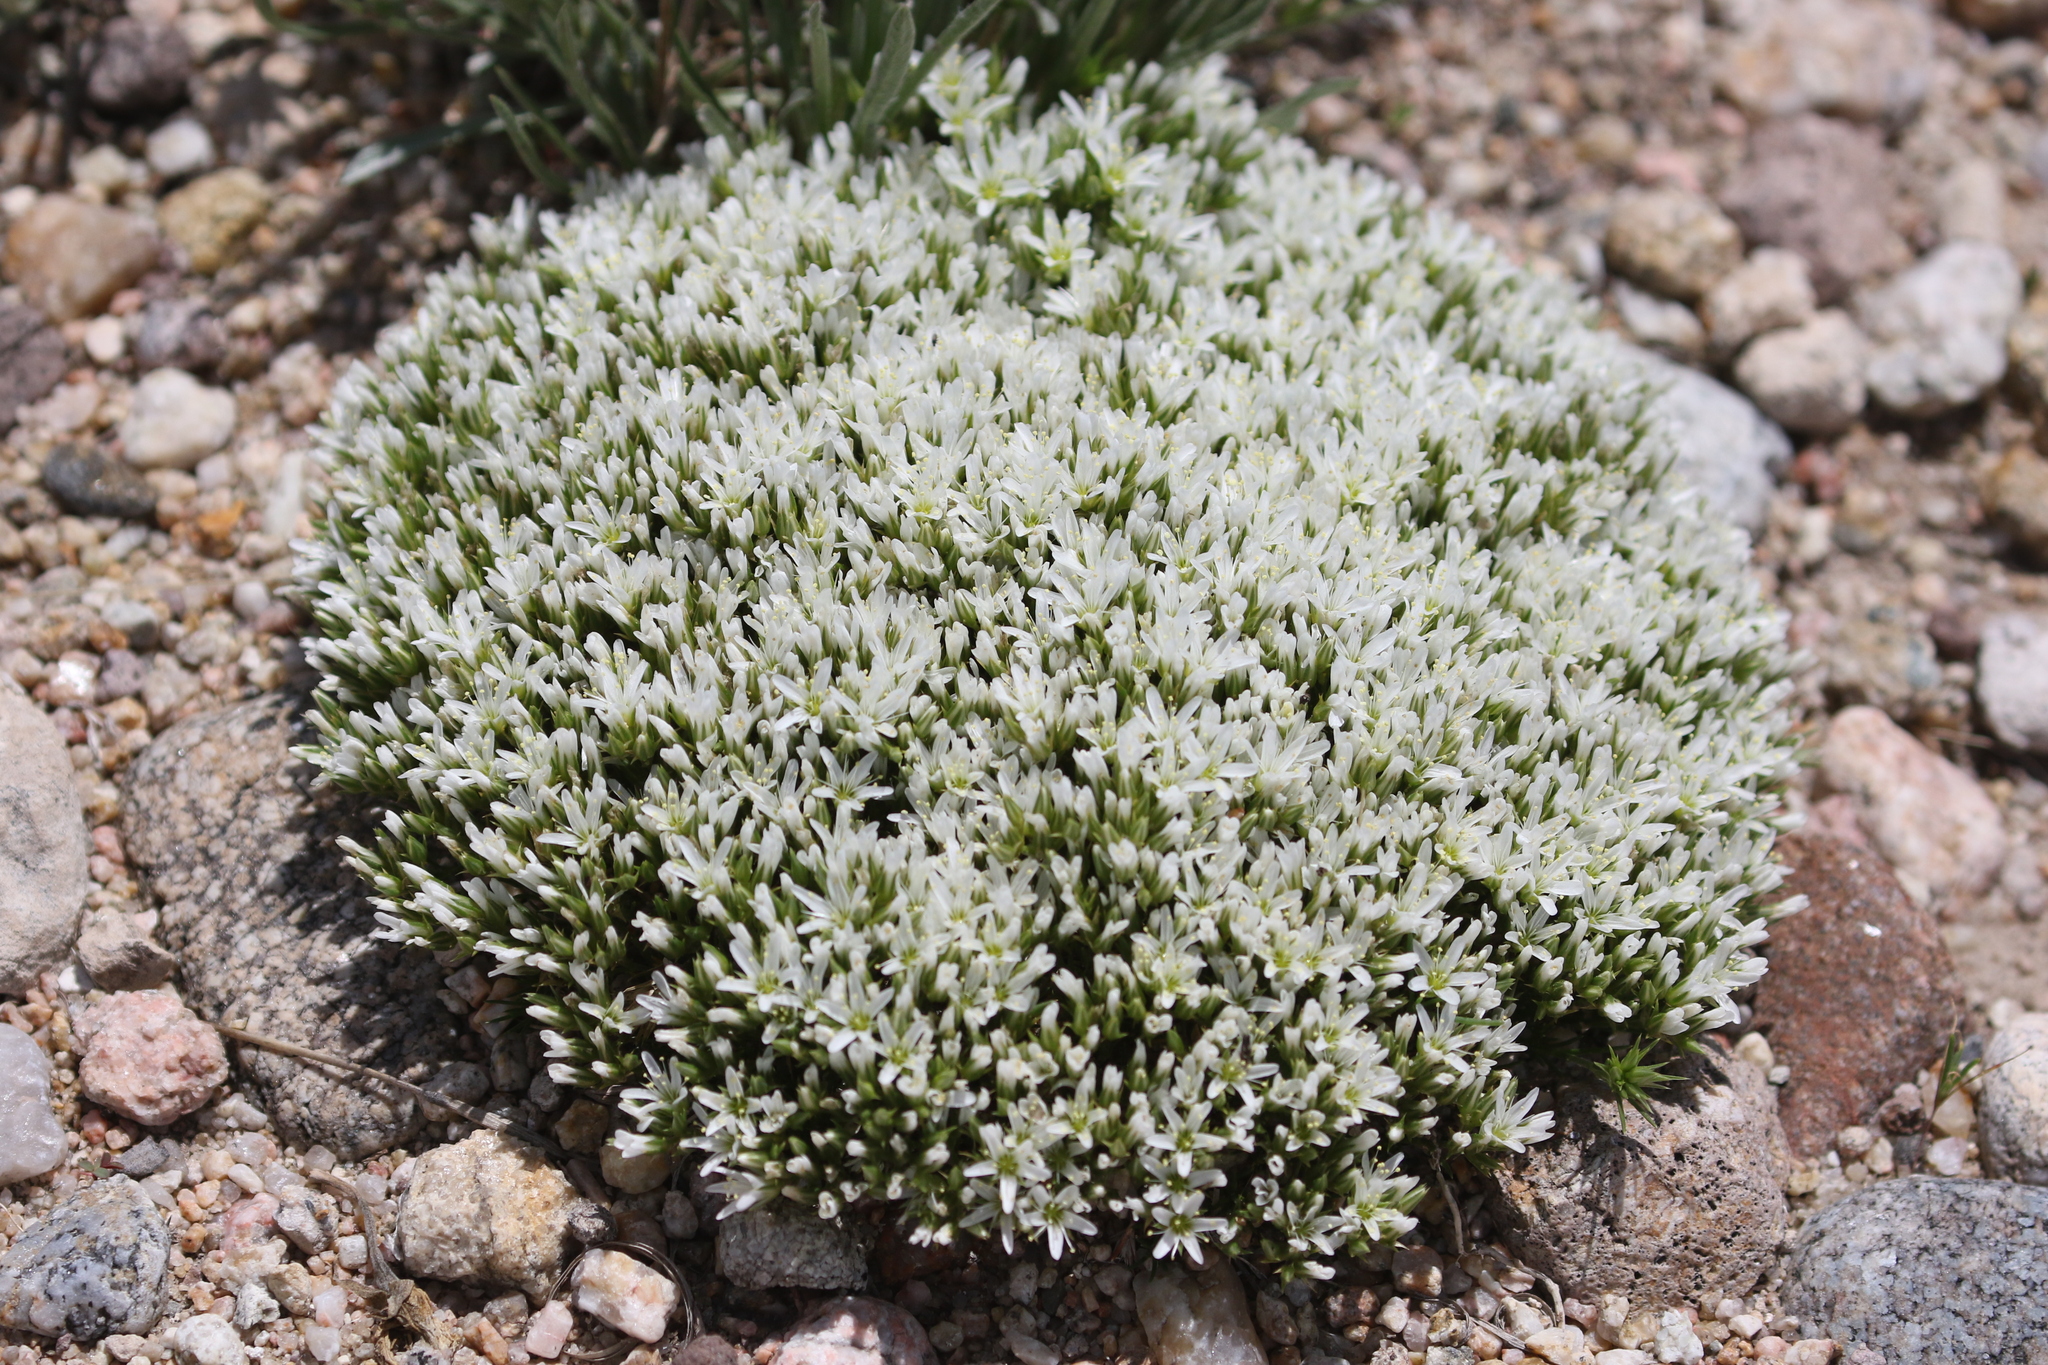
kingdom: Plantae
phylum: Tracheophyta
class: Magnoliopsida
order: Caryophyllales
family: Caryophyllaceae
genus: Eremogone
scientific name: Eremogone hookeri
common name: Hooker's sandwort
